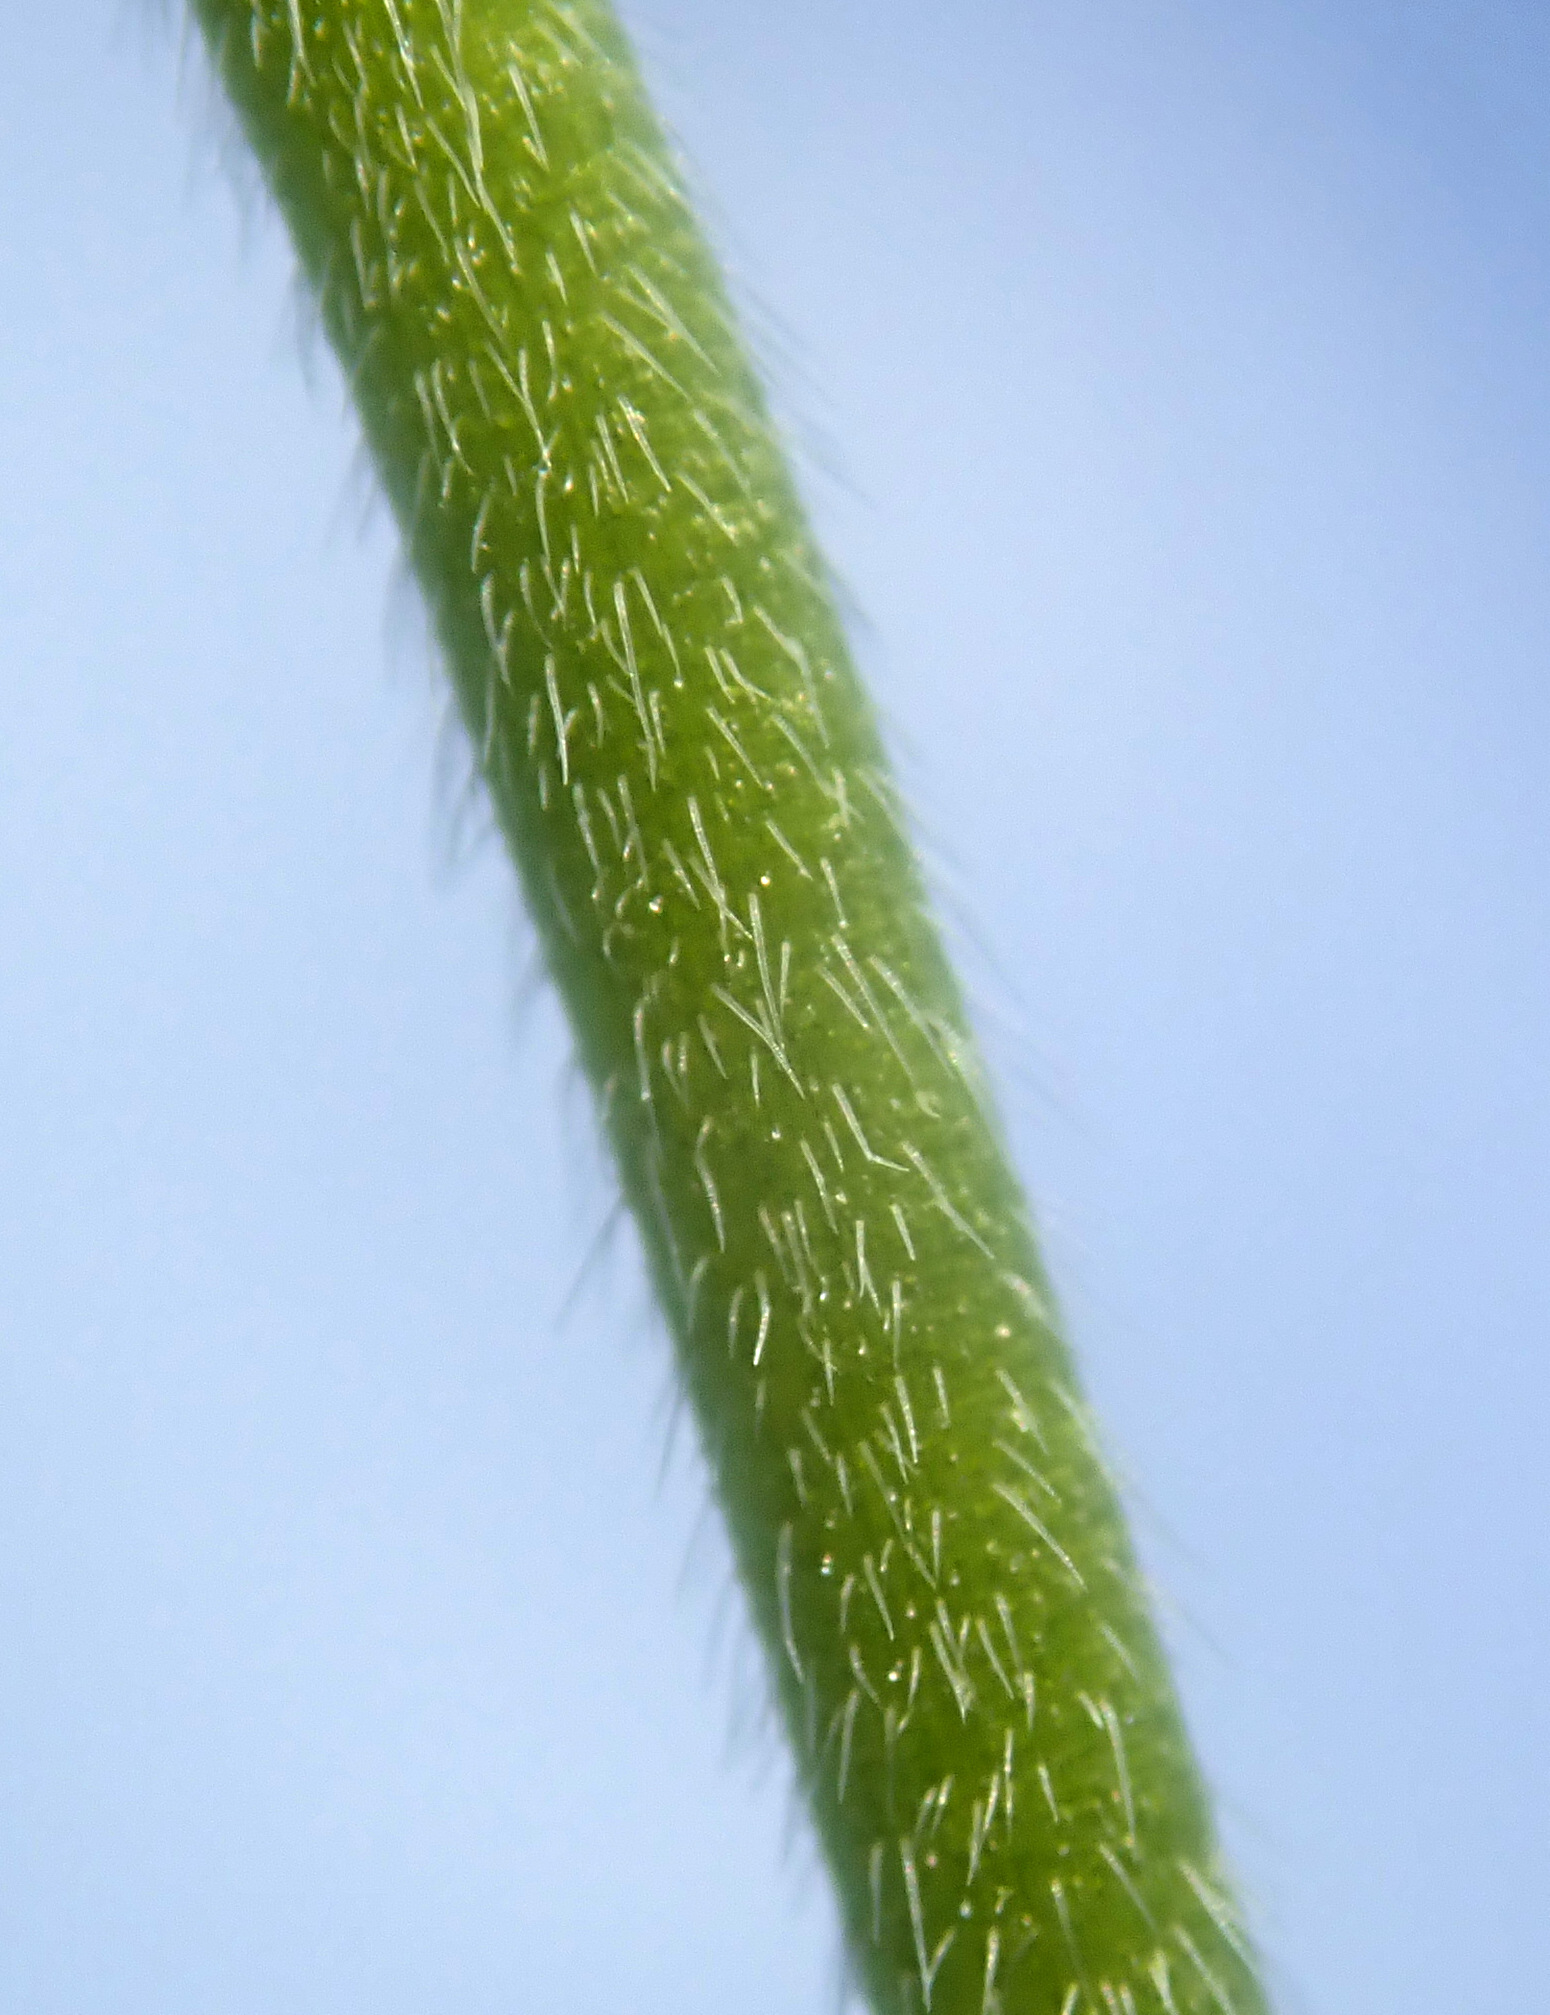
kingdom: Plantae
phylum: Tracheophyta
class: Magnoliopsida
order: Geraniales
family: Geraniaceae
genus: Geranium
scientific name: Geranium dissectum
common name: Cut-leaved crane's-bill
